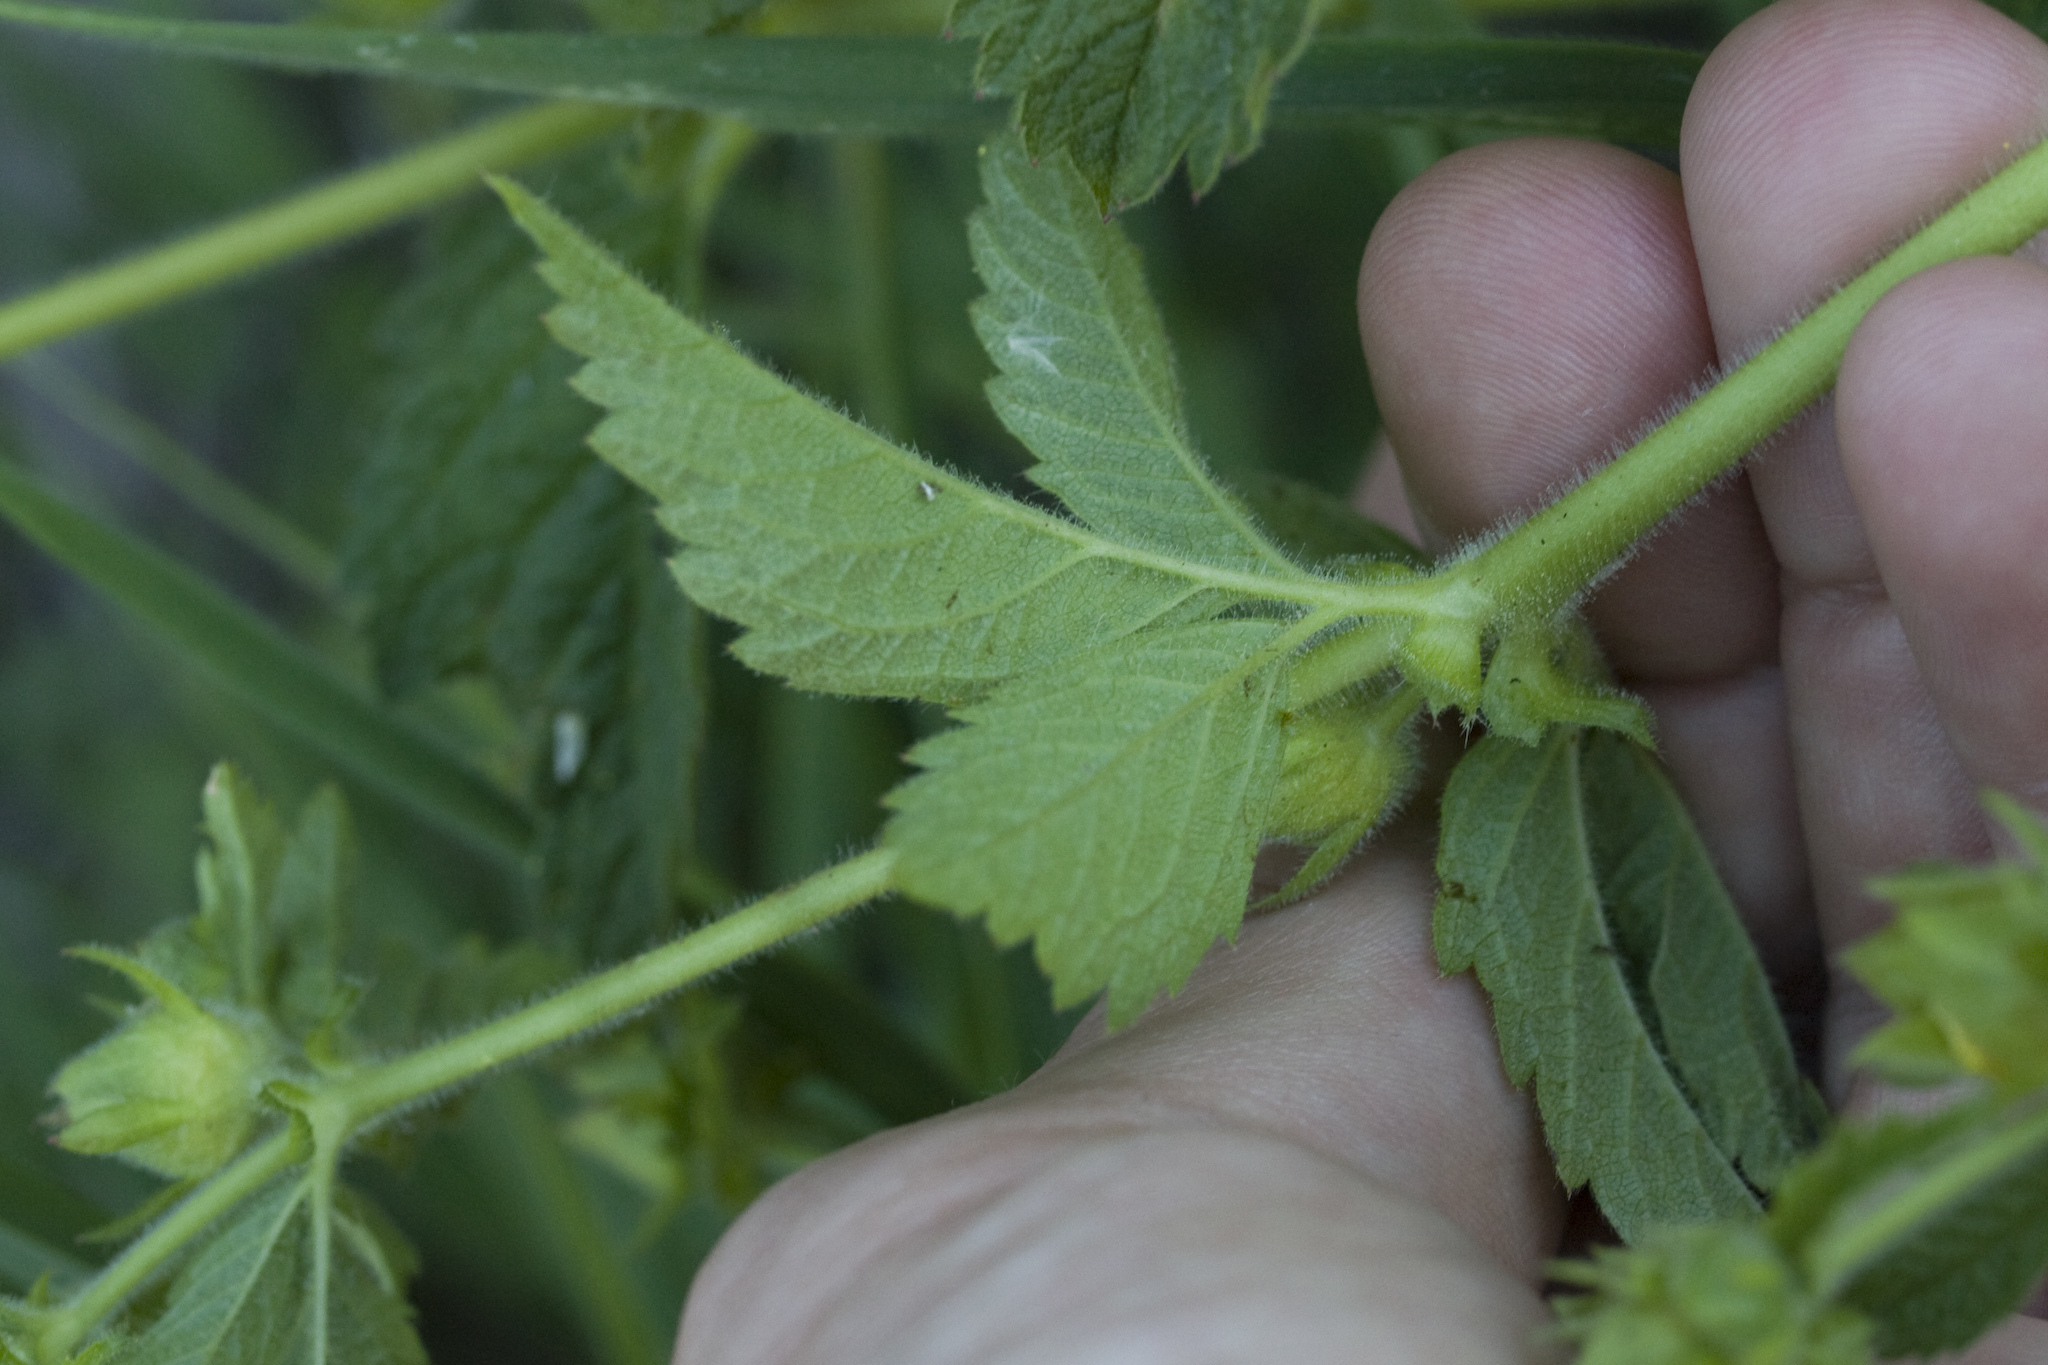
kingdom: Plantae
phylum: Tracheophyta
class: Magnoliopsida
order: Rosales
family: Rosaceae
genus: Drymocallis
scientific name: Drymocallis glandulosa
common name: Sticky cinquefoil
